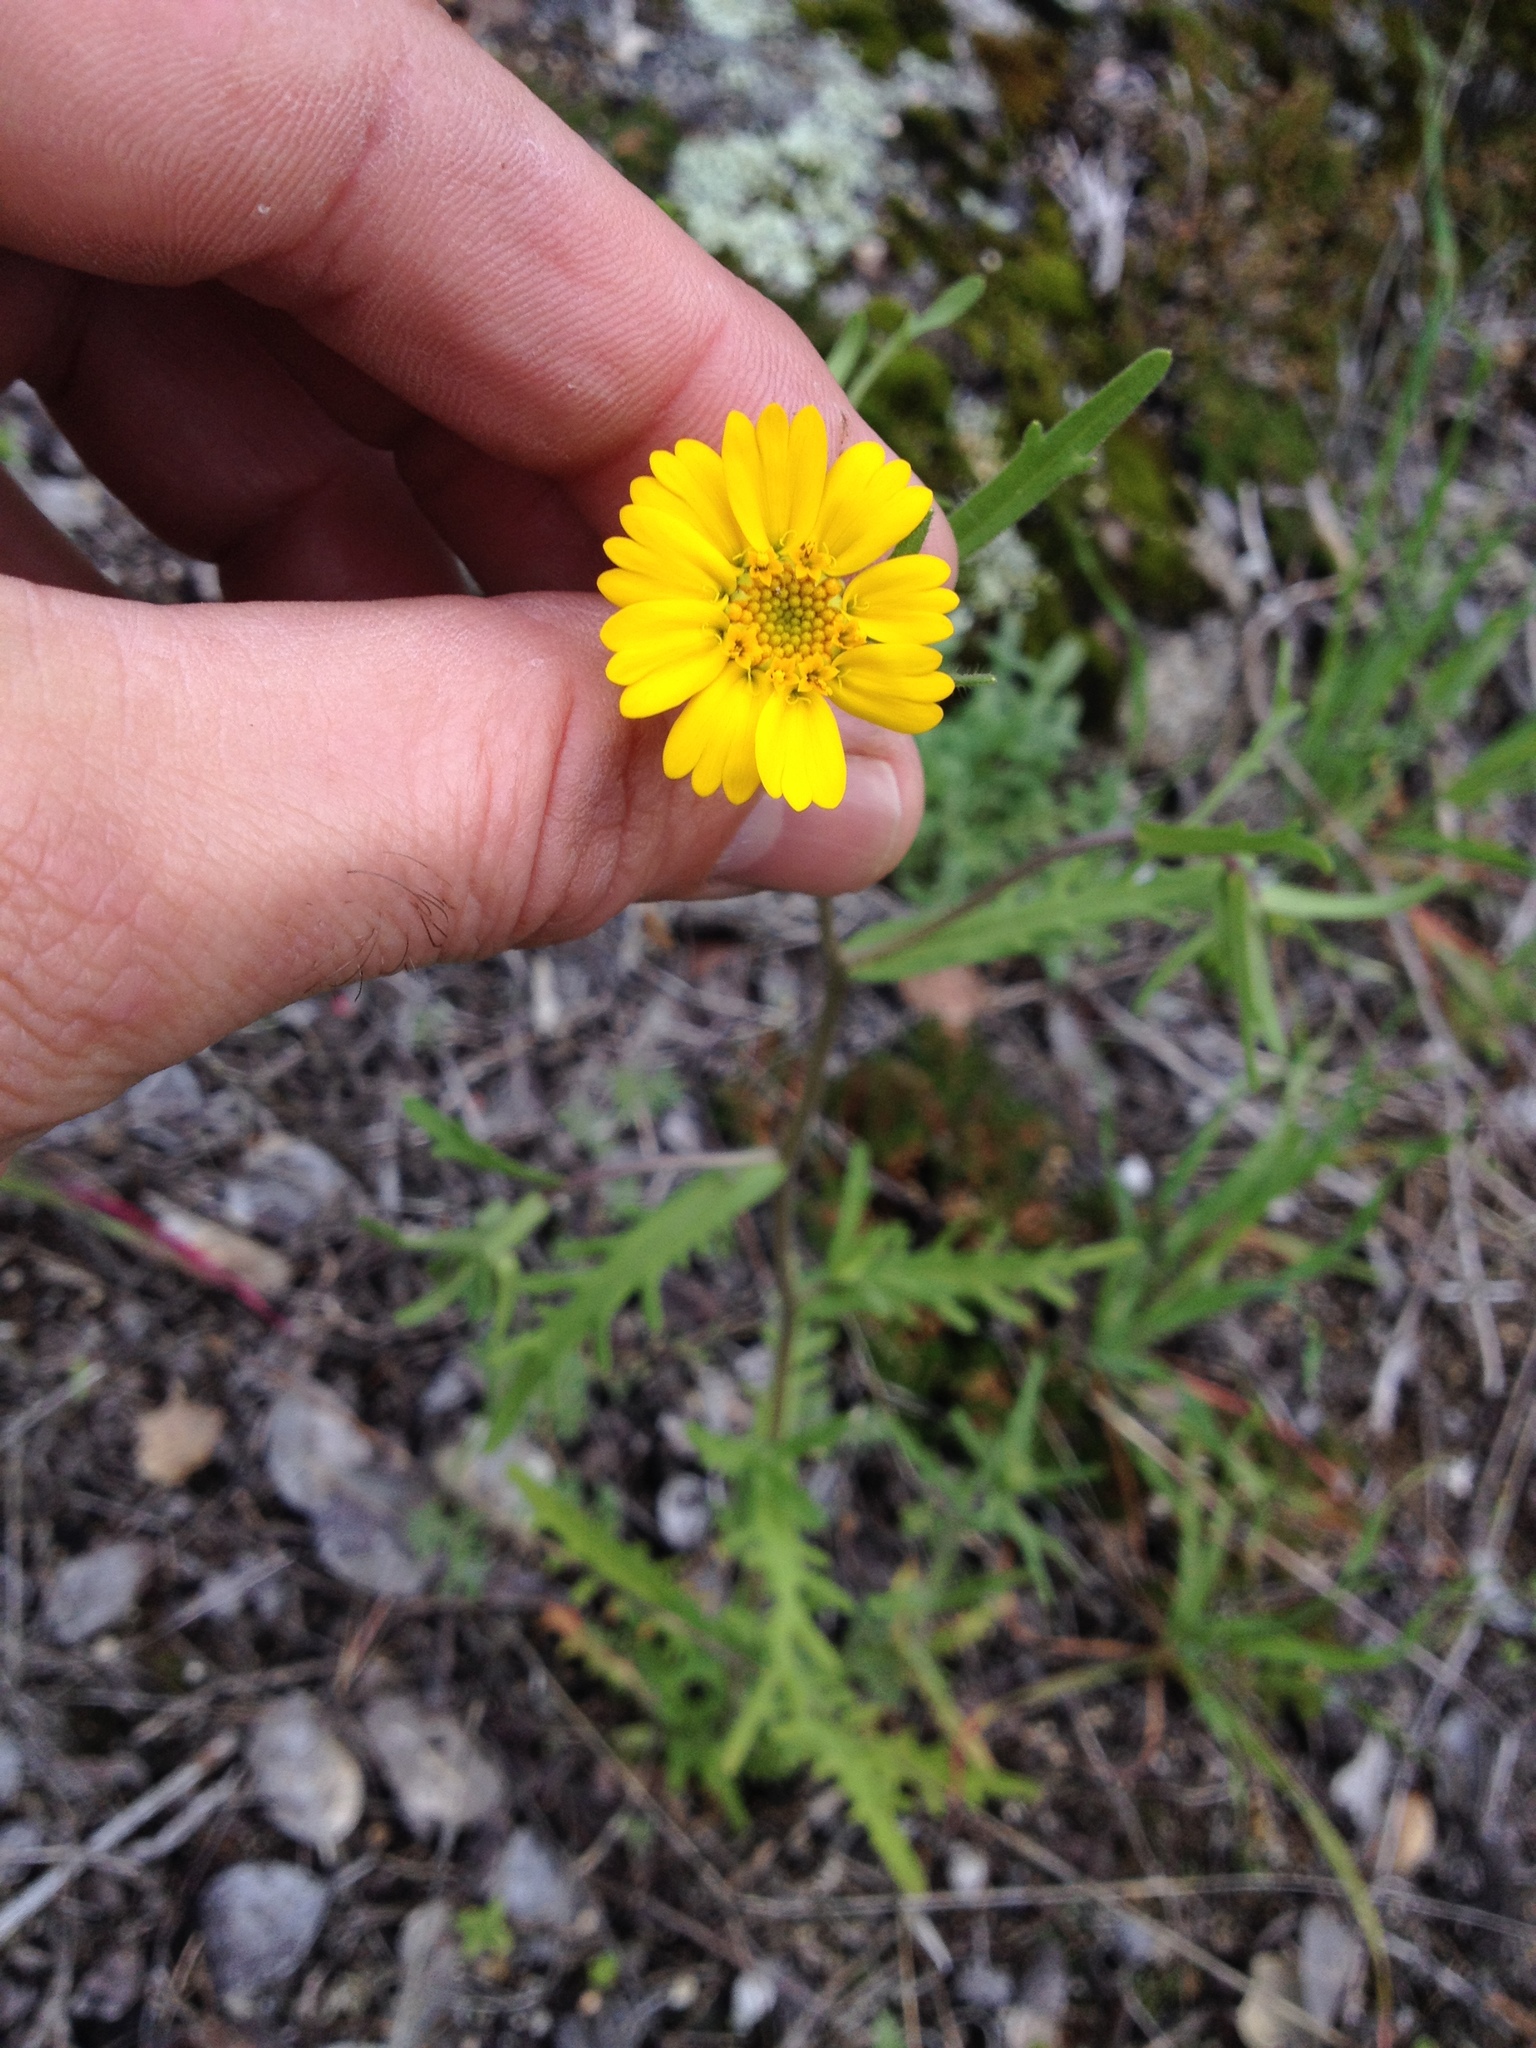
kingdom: Plantae
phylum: Tracheophyta
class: Magnoliopsida
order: Asterales
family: Asteraceae
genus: Layia
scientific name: Layia pentachaeta
